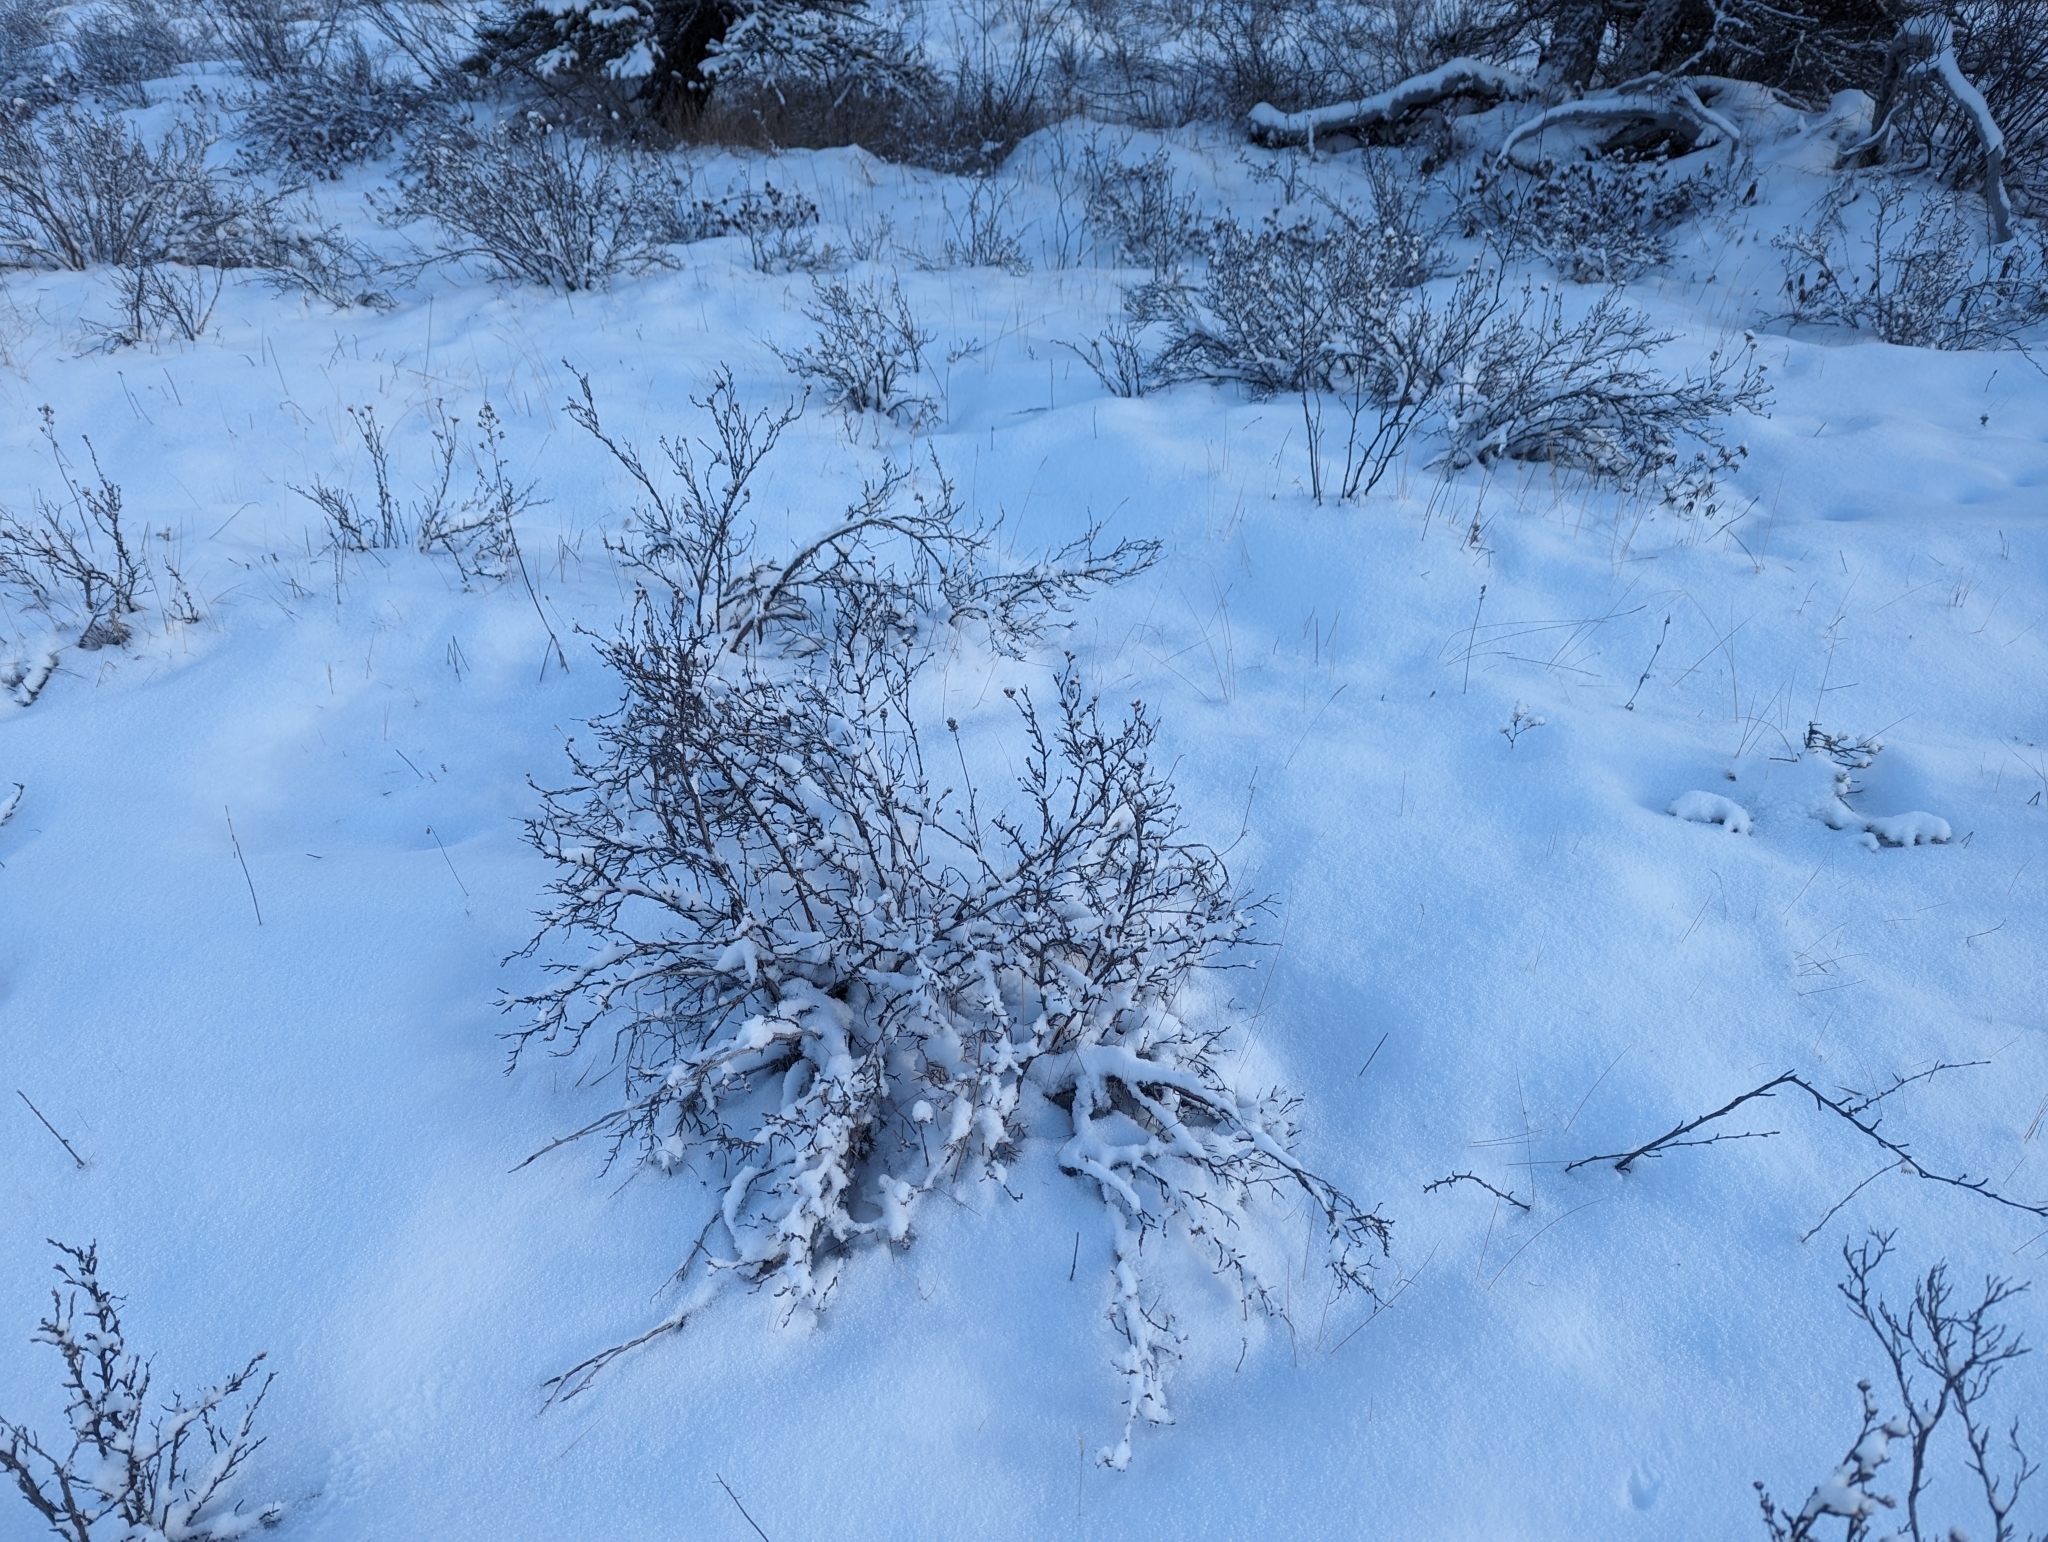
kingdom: Plantae
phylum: Tracheophyta
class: Magnoliopsida
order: Rosales
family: Rosaceae
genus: Dasiphora
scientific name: Dasiphora fruticosa
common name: Shrubby cinquefoil
